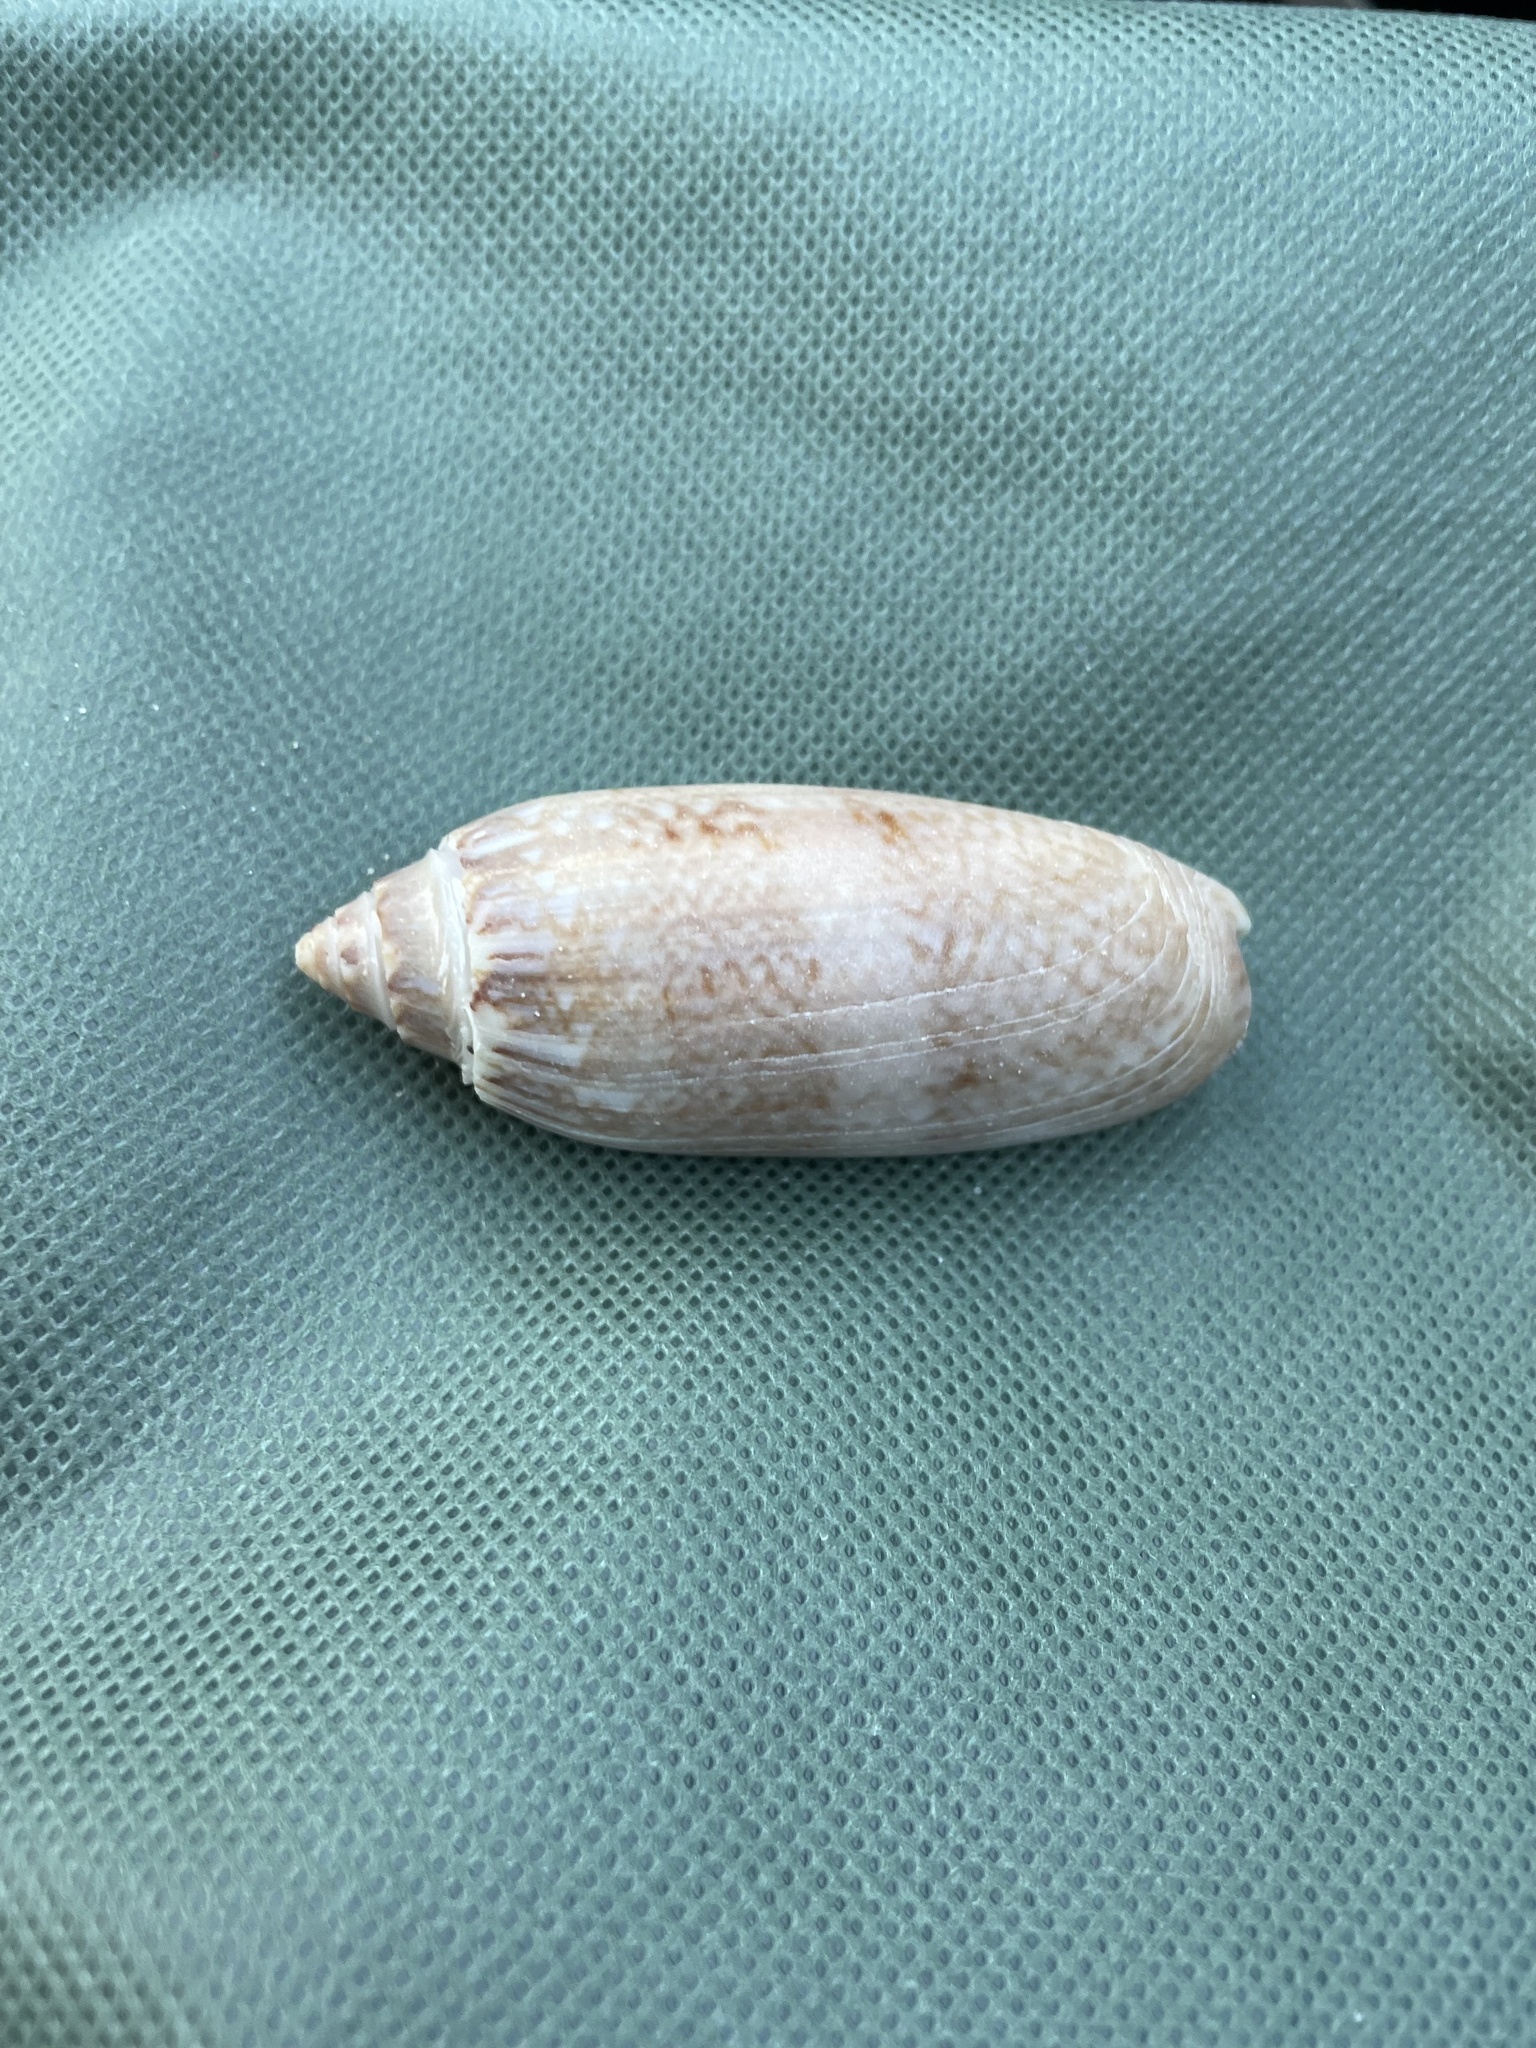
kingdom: Animalia
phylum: Mollusca
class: Gastropoda
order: Neogastropoda
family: Olividae
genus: Oliva
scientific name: Oliva sayana
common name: Lettered olive
